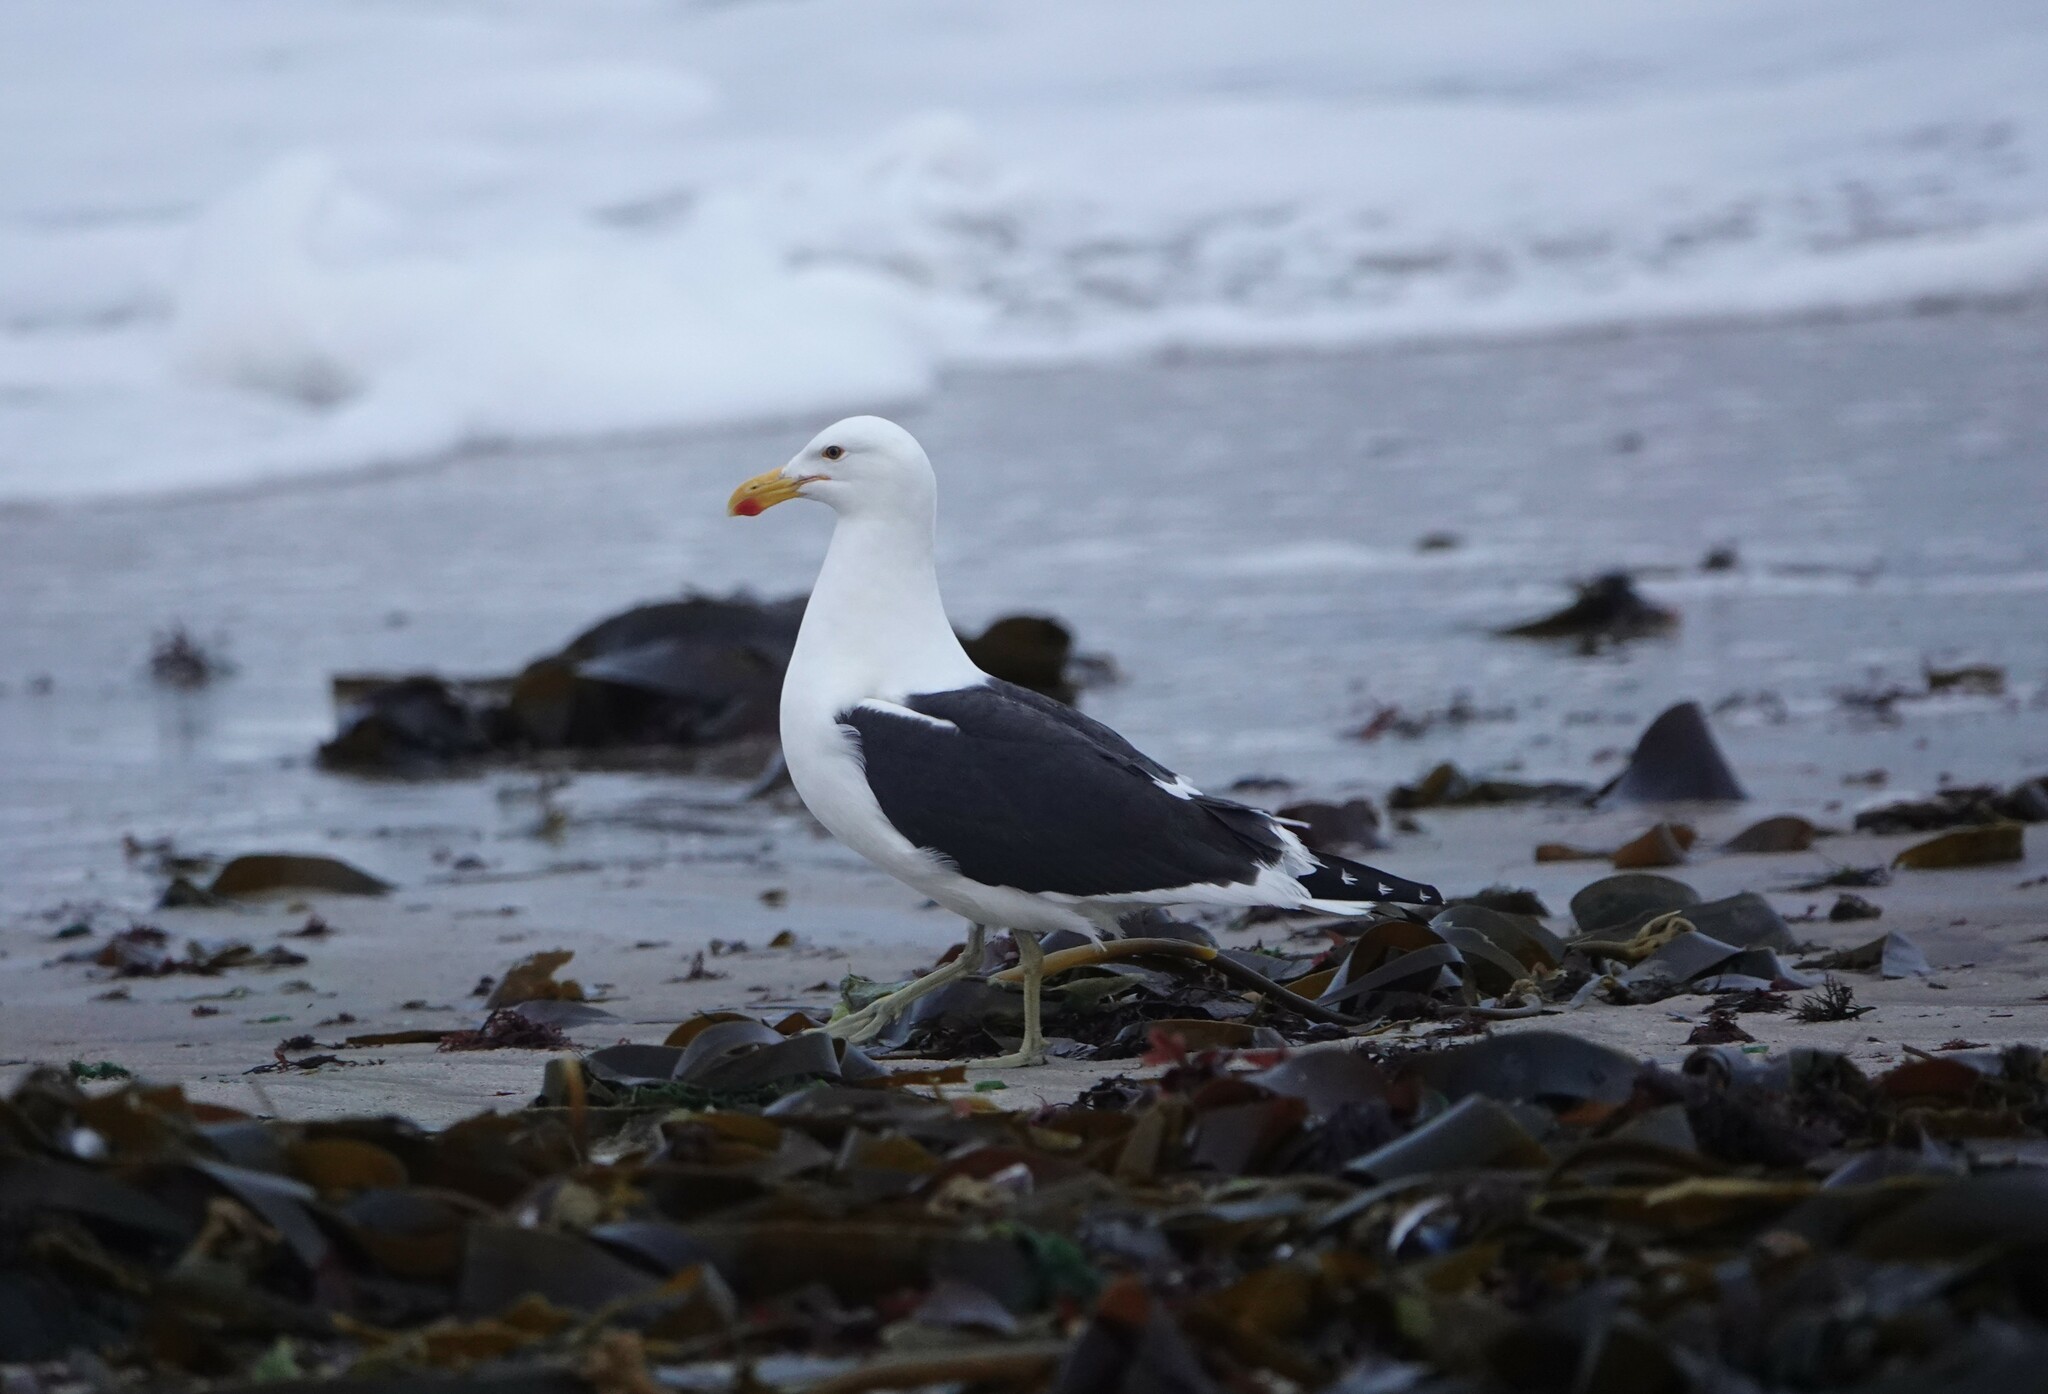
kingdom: Animalia
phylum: Chordata
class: Aves
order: Charadriiformes
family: Laridae
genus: Larus
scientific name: Larus dominicanus
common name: Kelp gull
